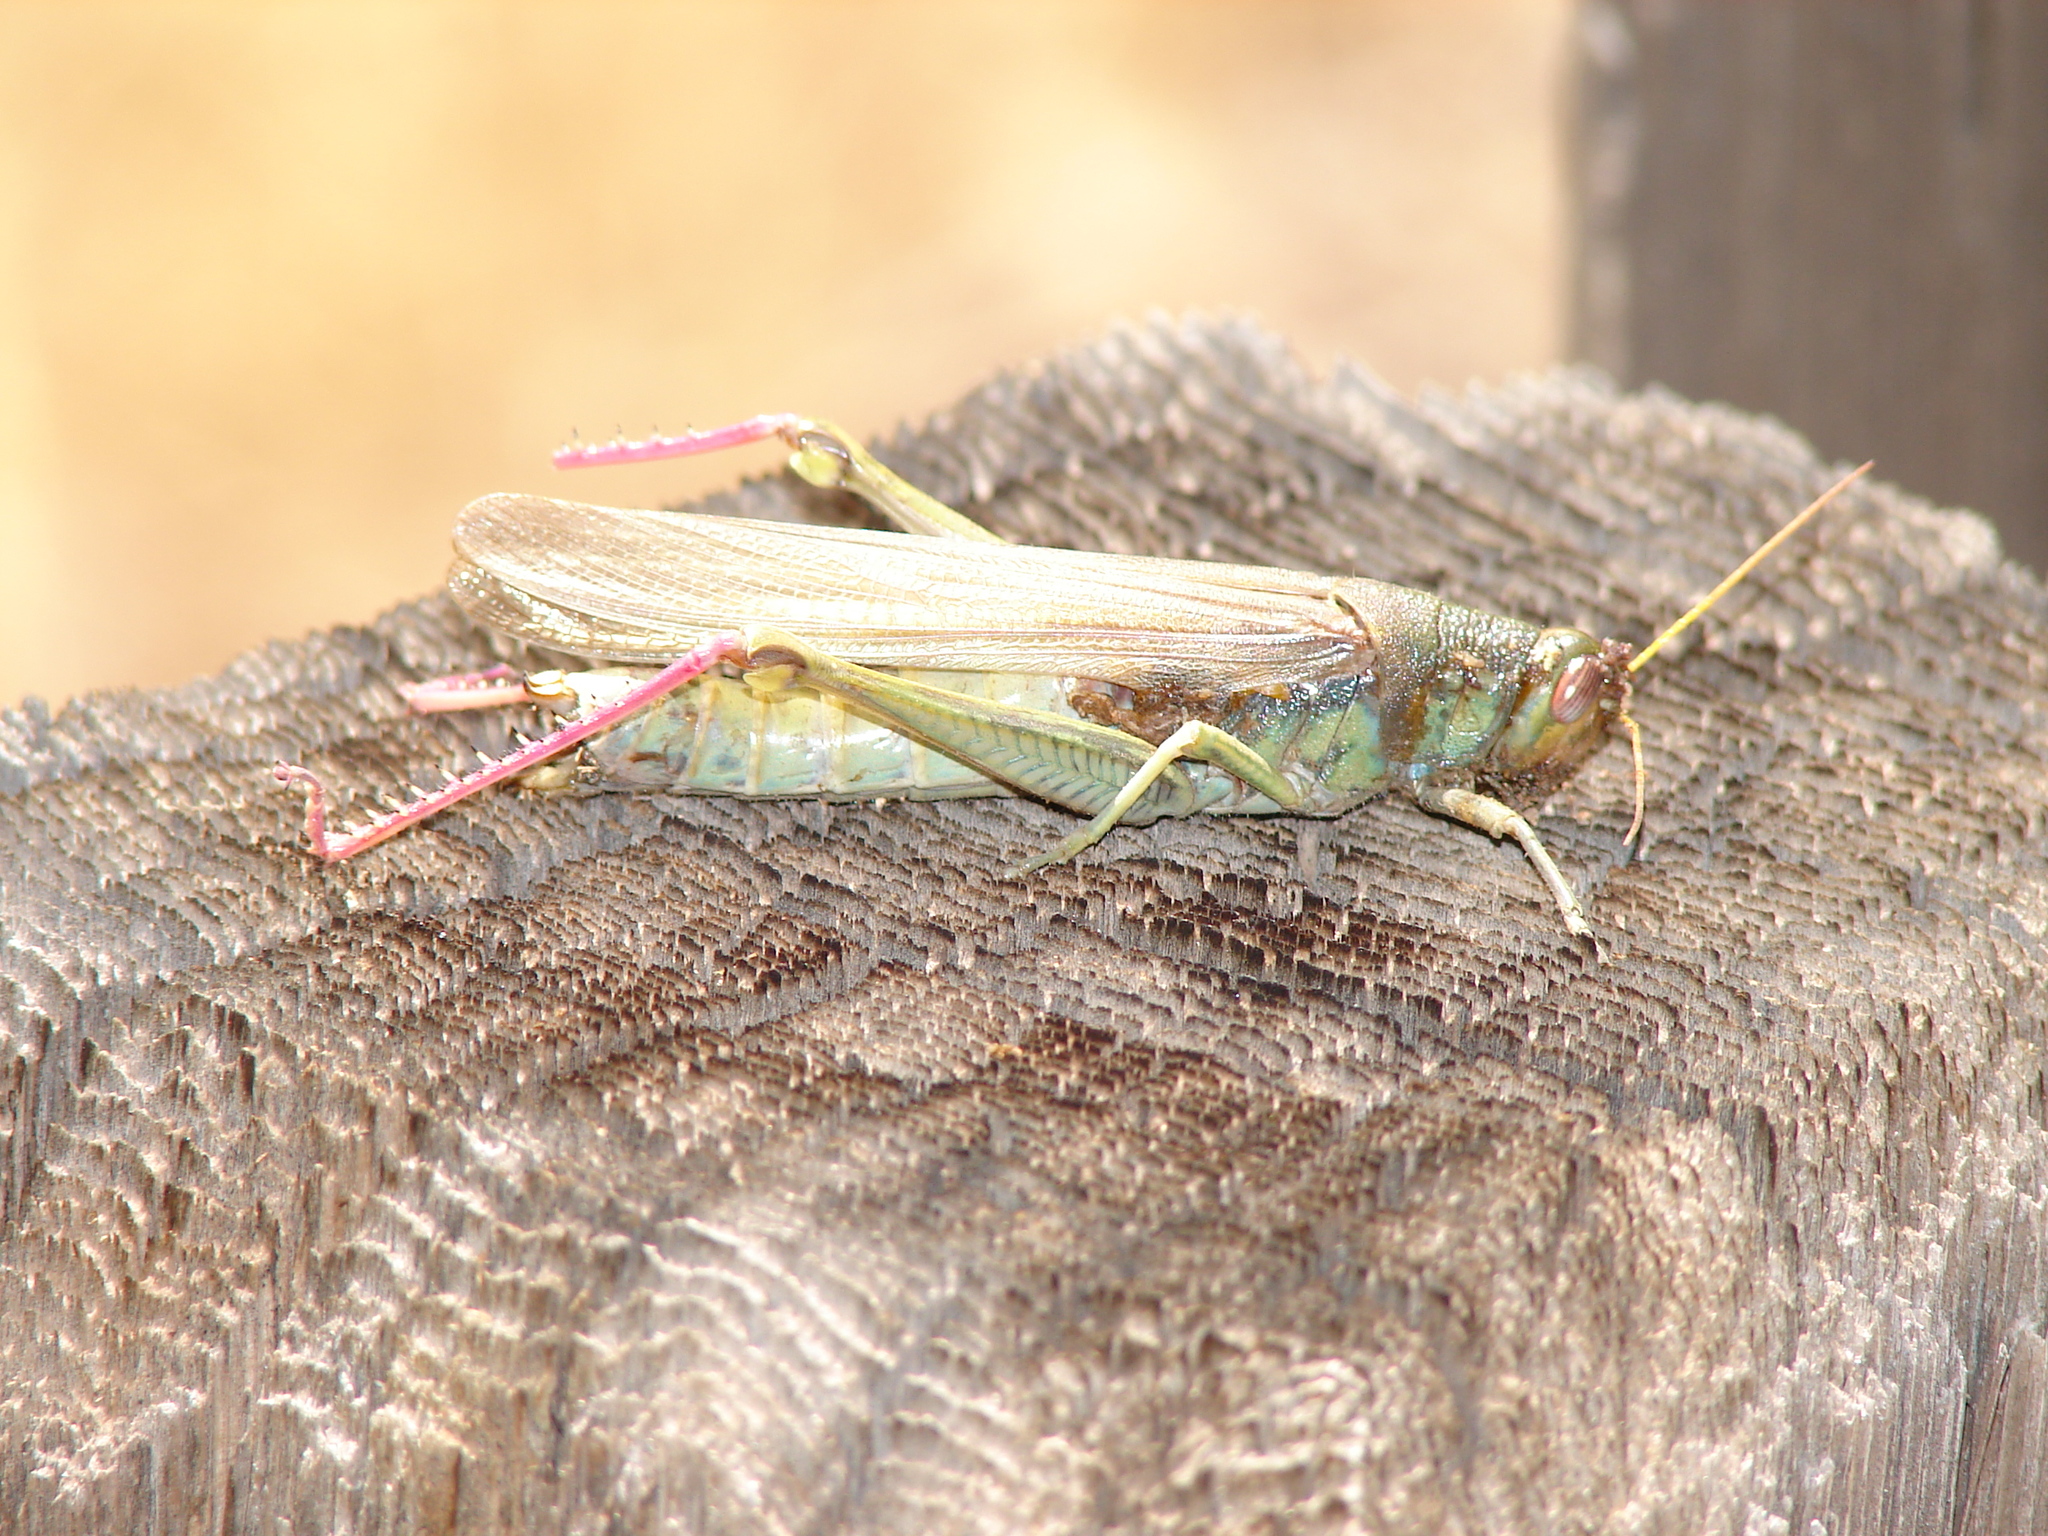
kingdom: Animalia
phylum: Arthropoda
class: Insecta
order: Orthoptera
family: Acrididae
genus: Schistocerca
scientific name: Schistocerca shoshone
